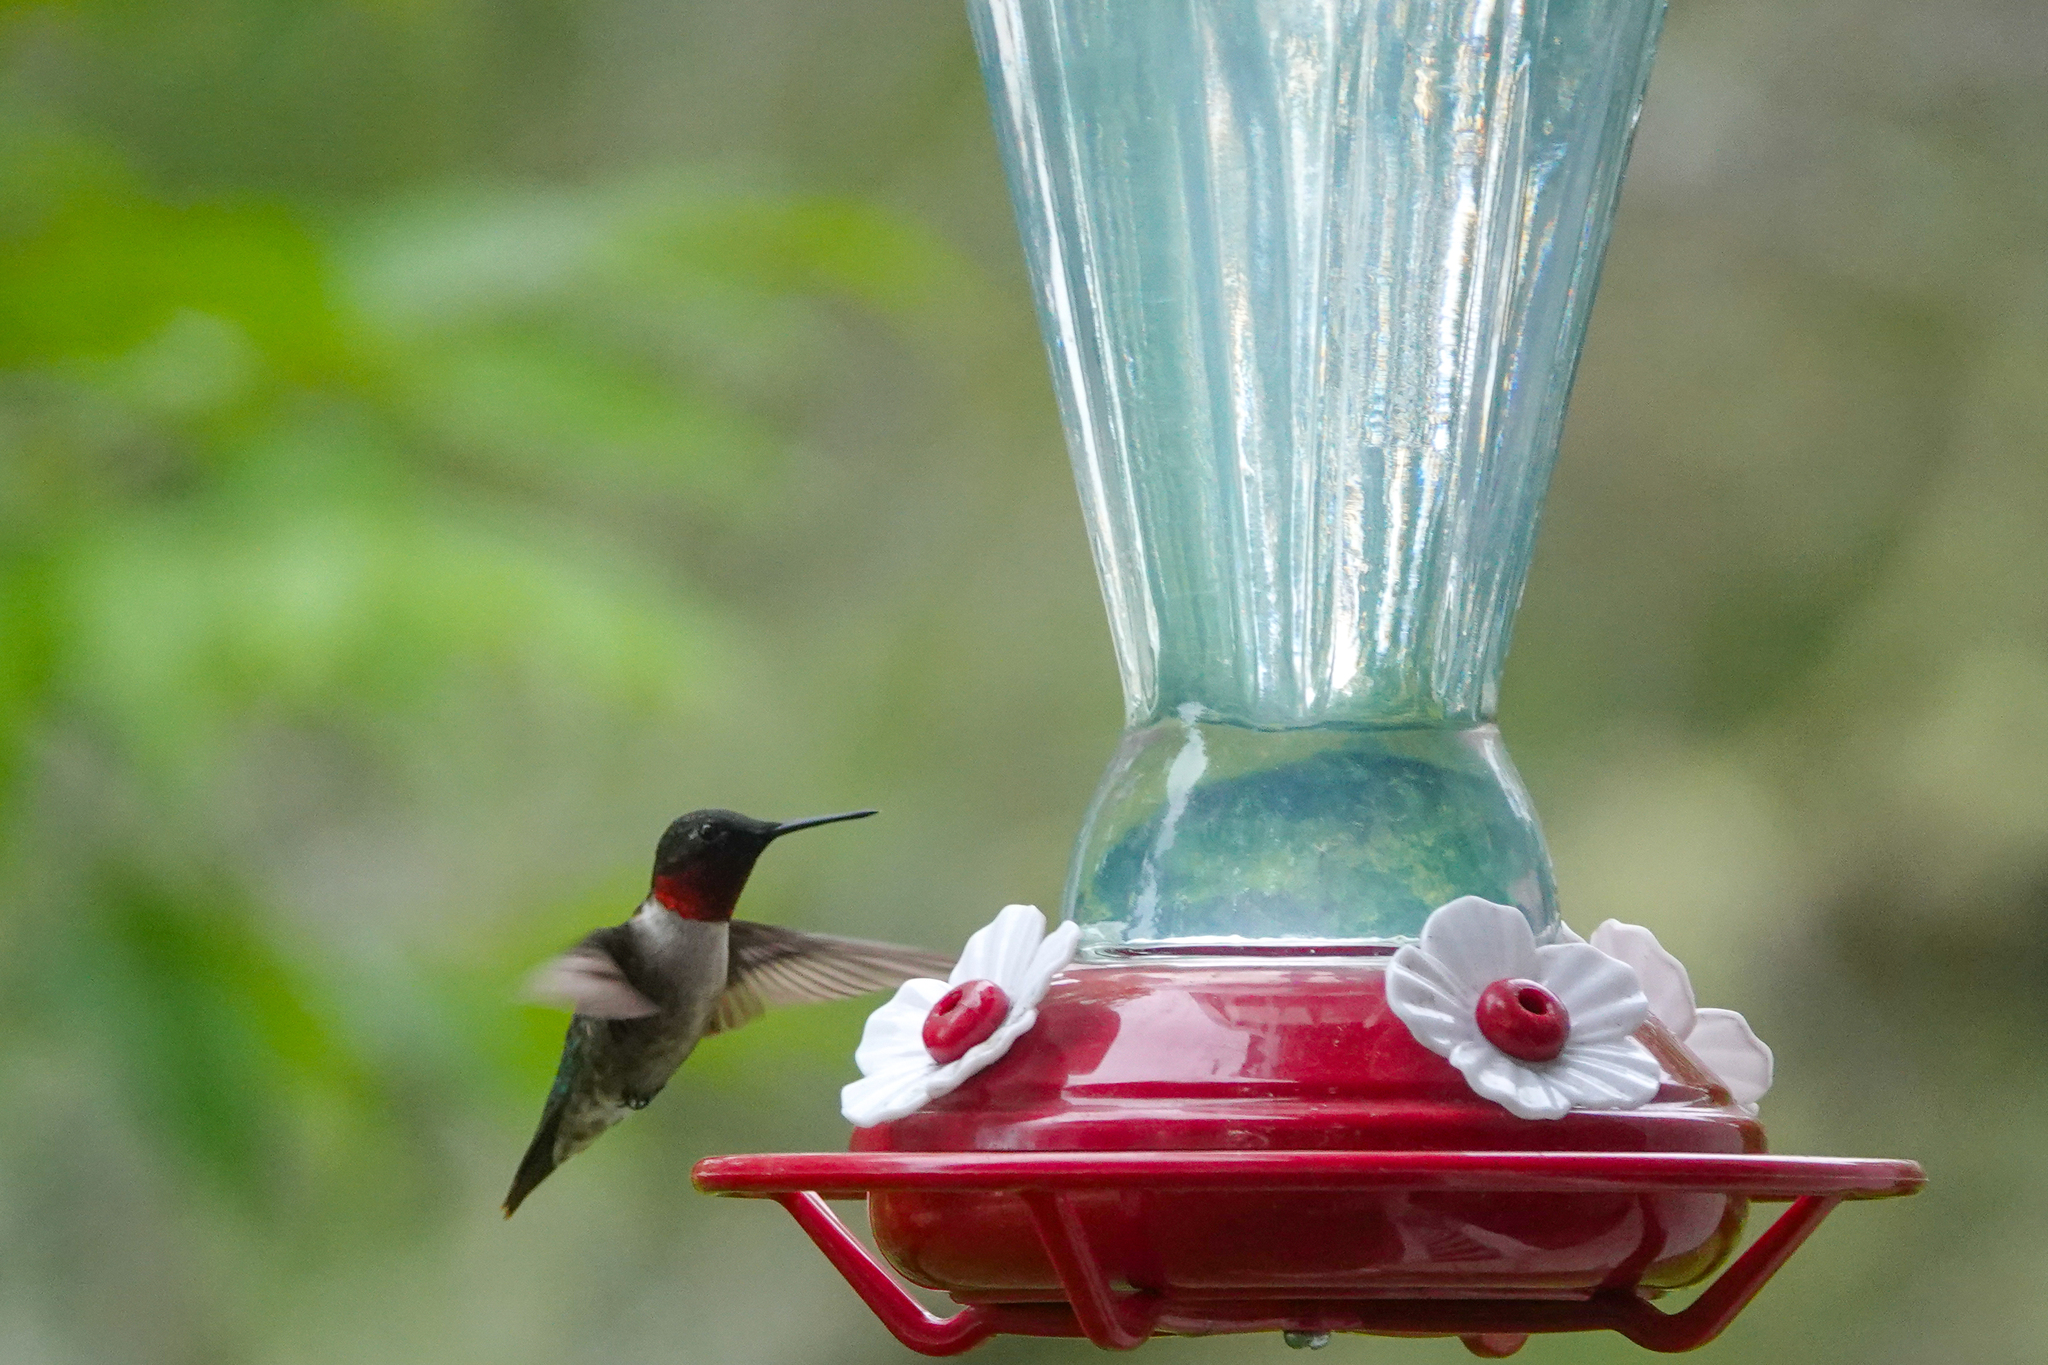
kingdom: Animalia
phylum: Chordata
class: Aves
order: Apodiformes
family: Trochilidae
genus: Archilochus
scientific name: Archilochus colubris
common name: Ruby-throated hummingbird
